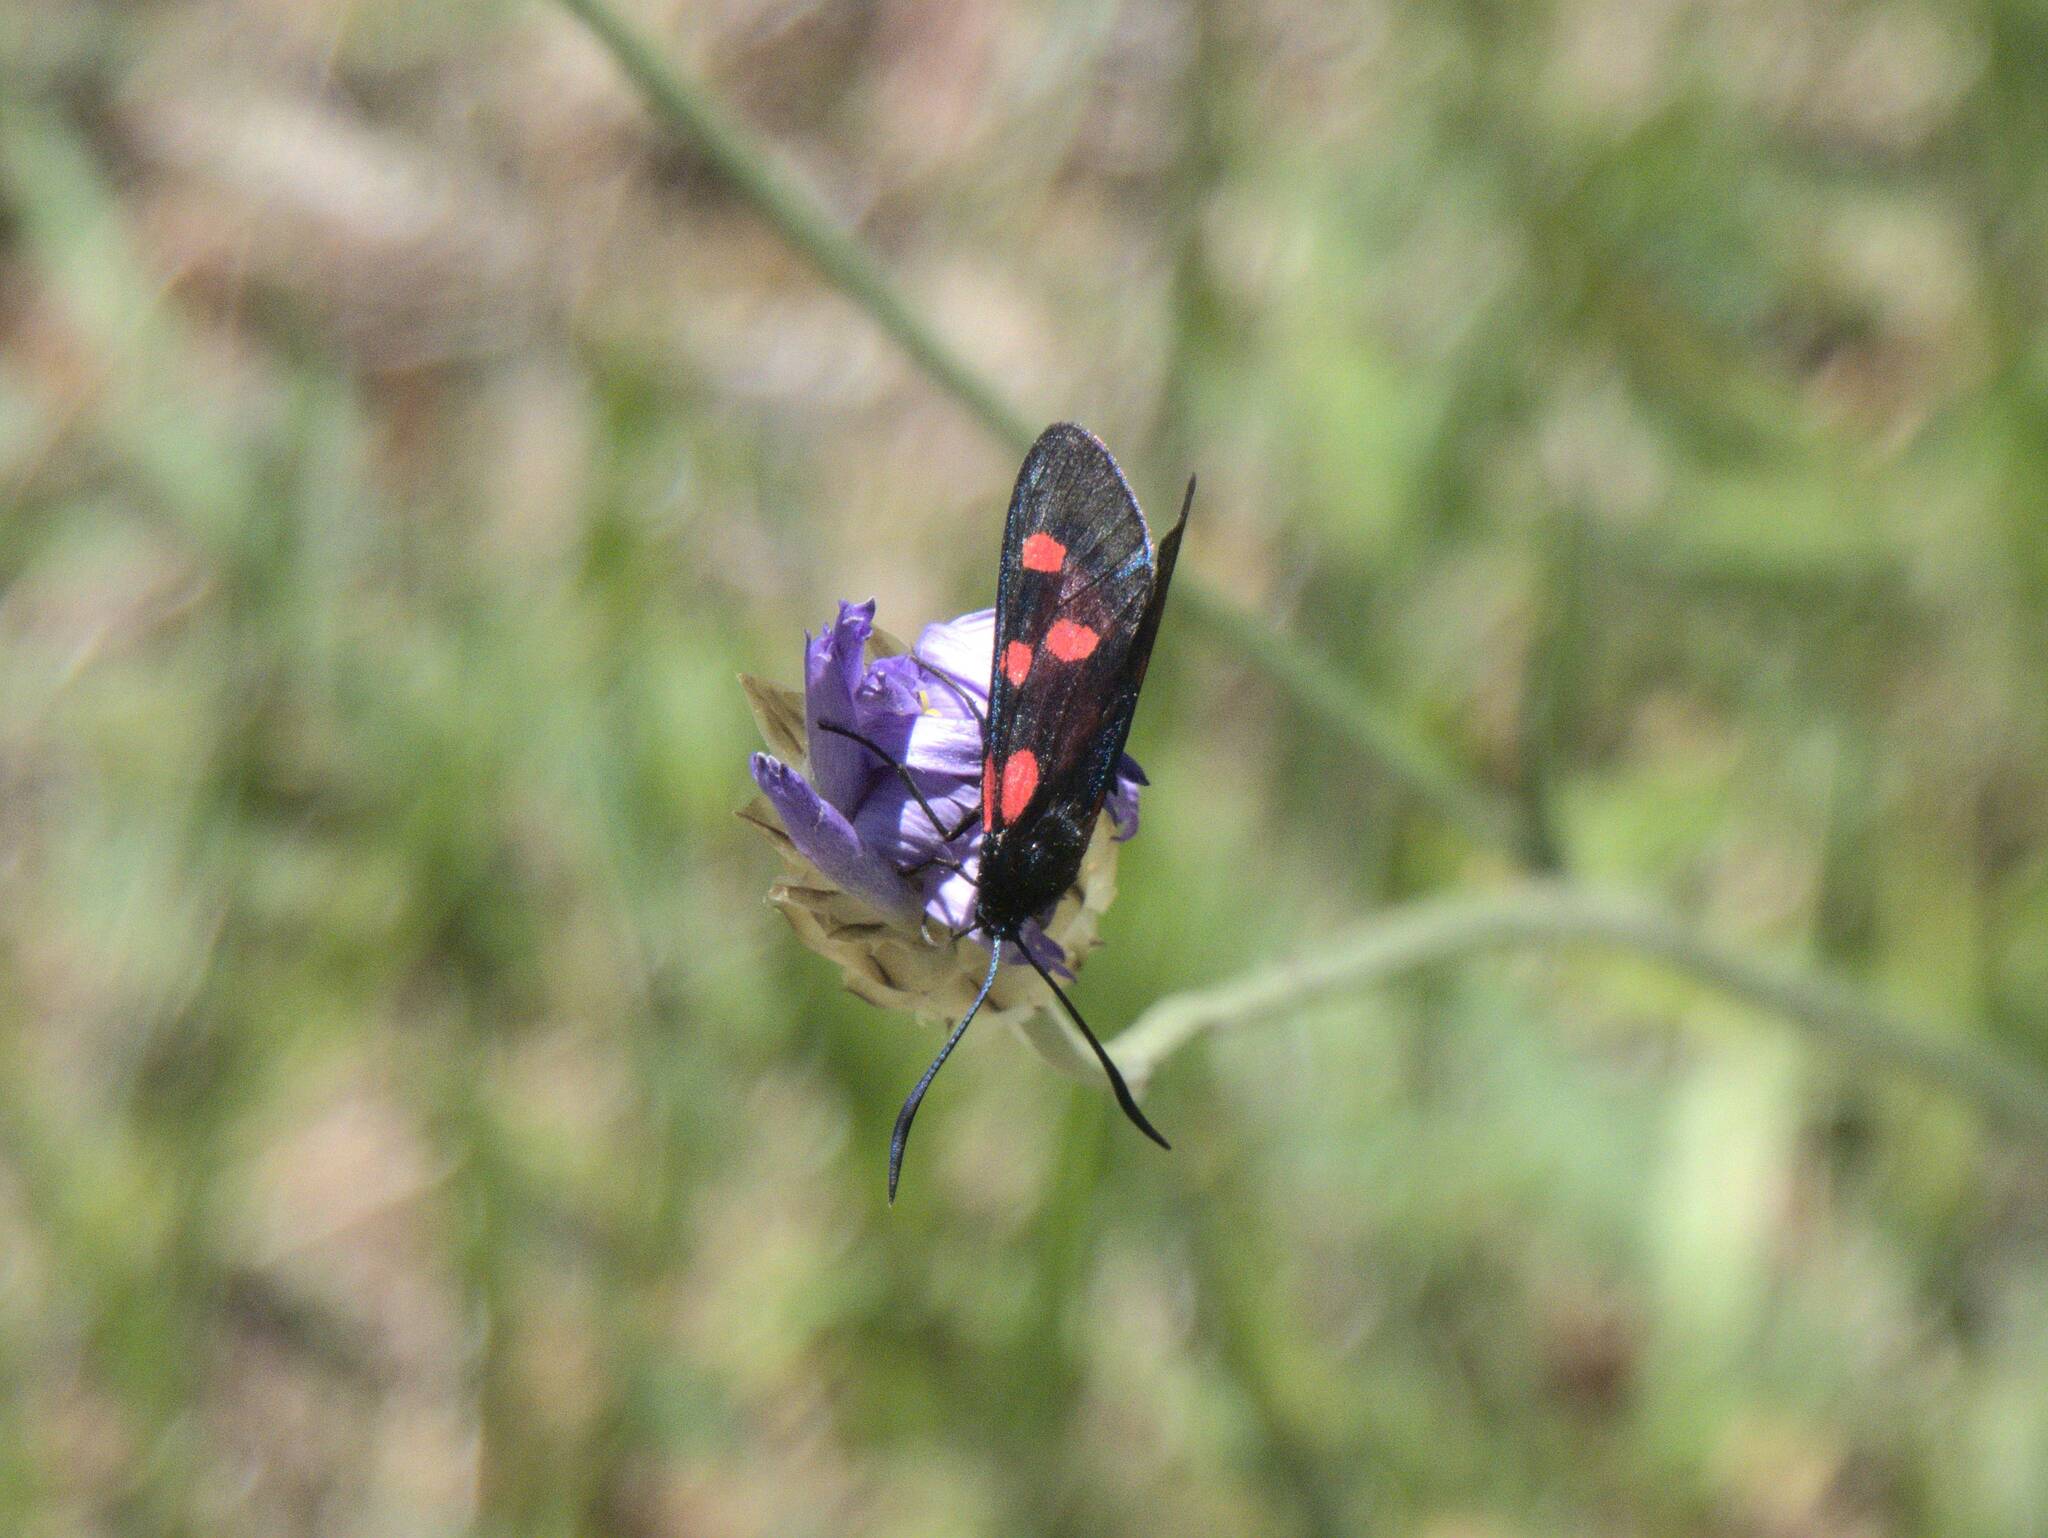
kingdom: Animalia
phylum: Arthropoda
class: Insecta
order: Lepidoptera
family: Zygaenidae
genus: Zygaena
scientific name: Zygaena lonicerae
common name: Narrow-bordered five-spot burnet
